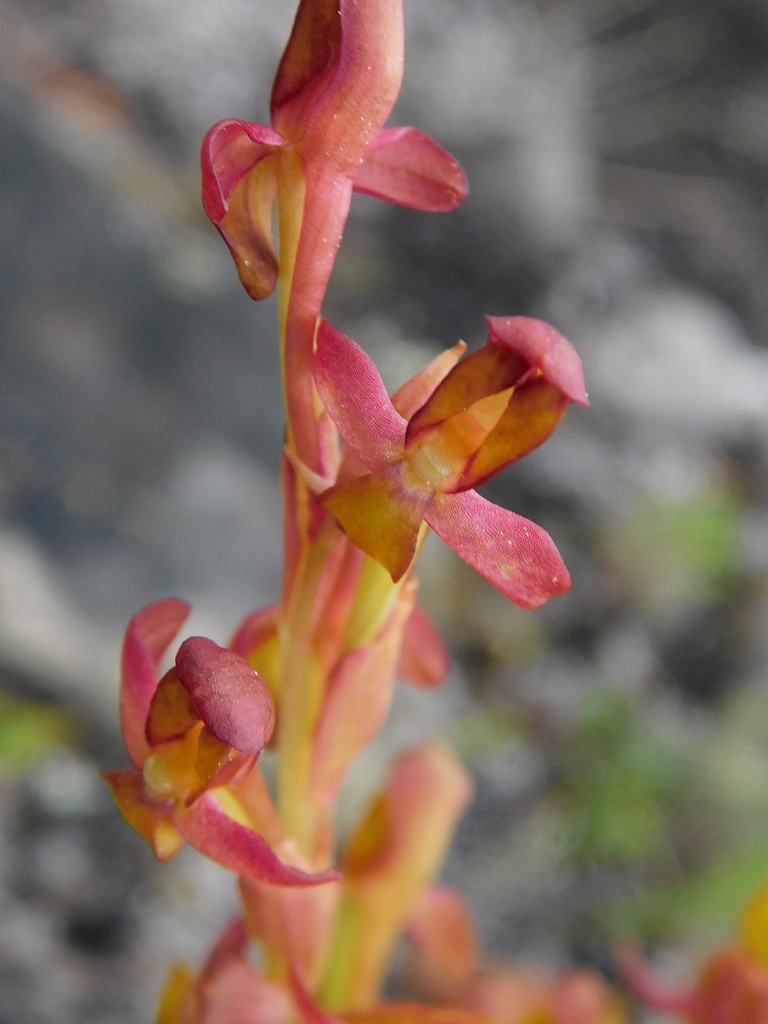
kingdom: Plantae
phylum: Tracheophyta
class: Liliopsida
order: Asparagales
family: Orchidaceae
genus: Disa
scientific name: Disa comosa
